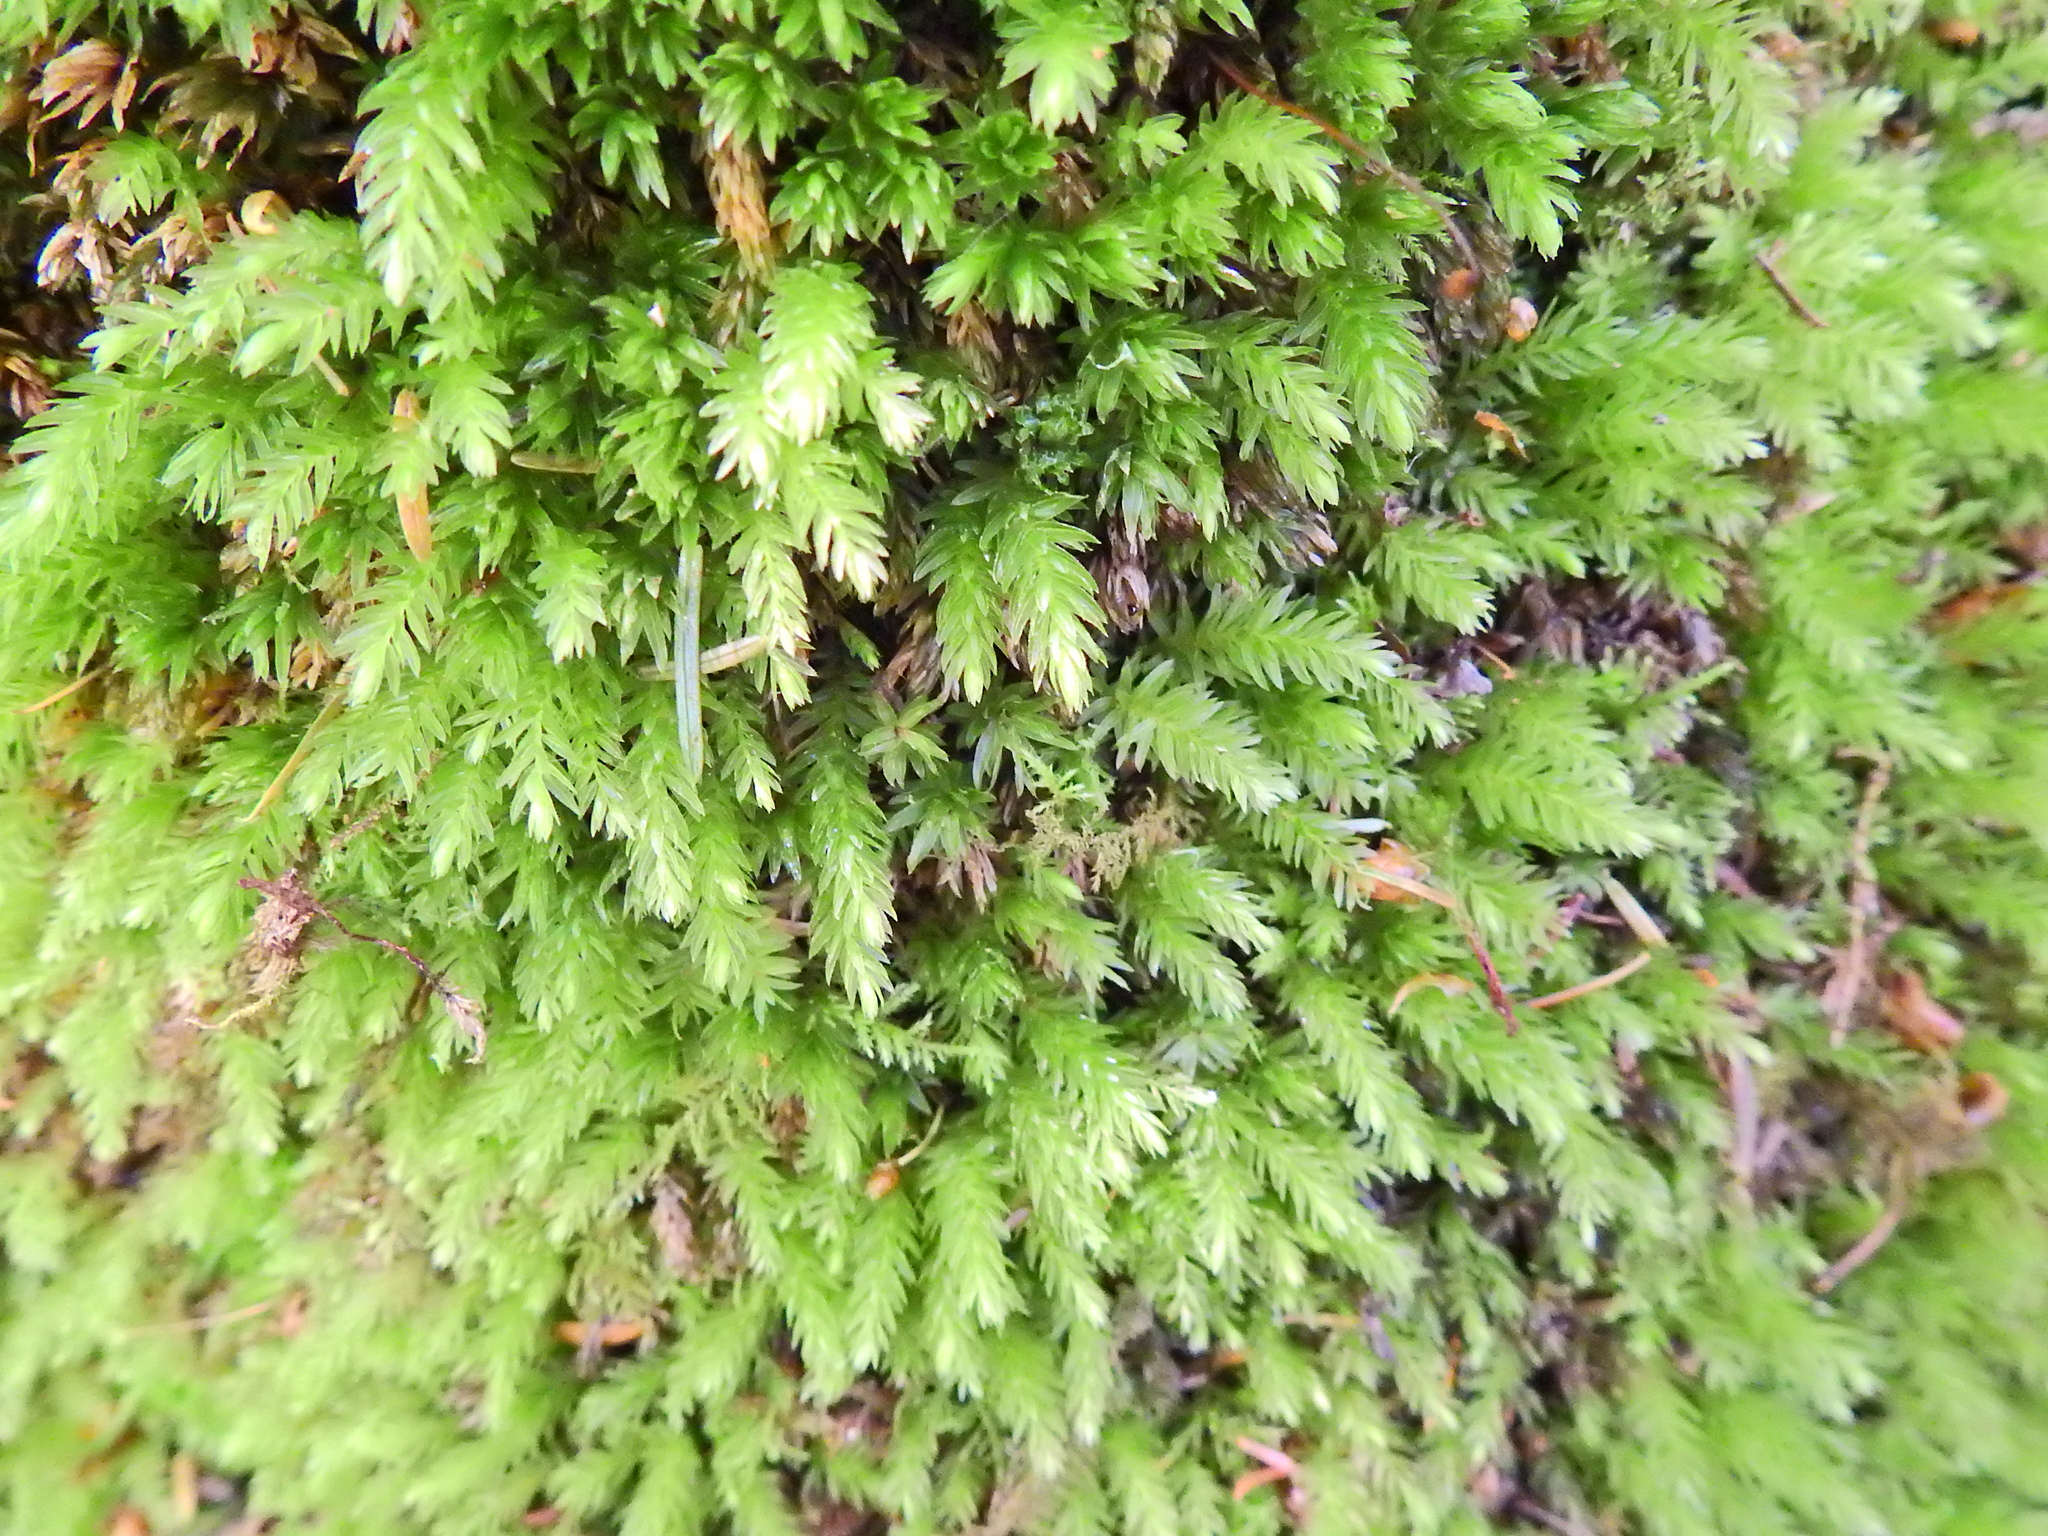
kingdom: Plantae
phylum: Bryophyta
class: Bryopsida
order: Bryales
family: Mniaceae
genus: Mnium
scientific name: Mnium hornum
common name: Swan's-neck leafy moss
